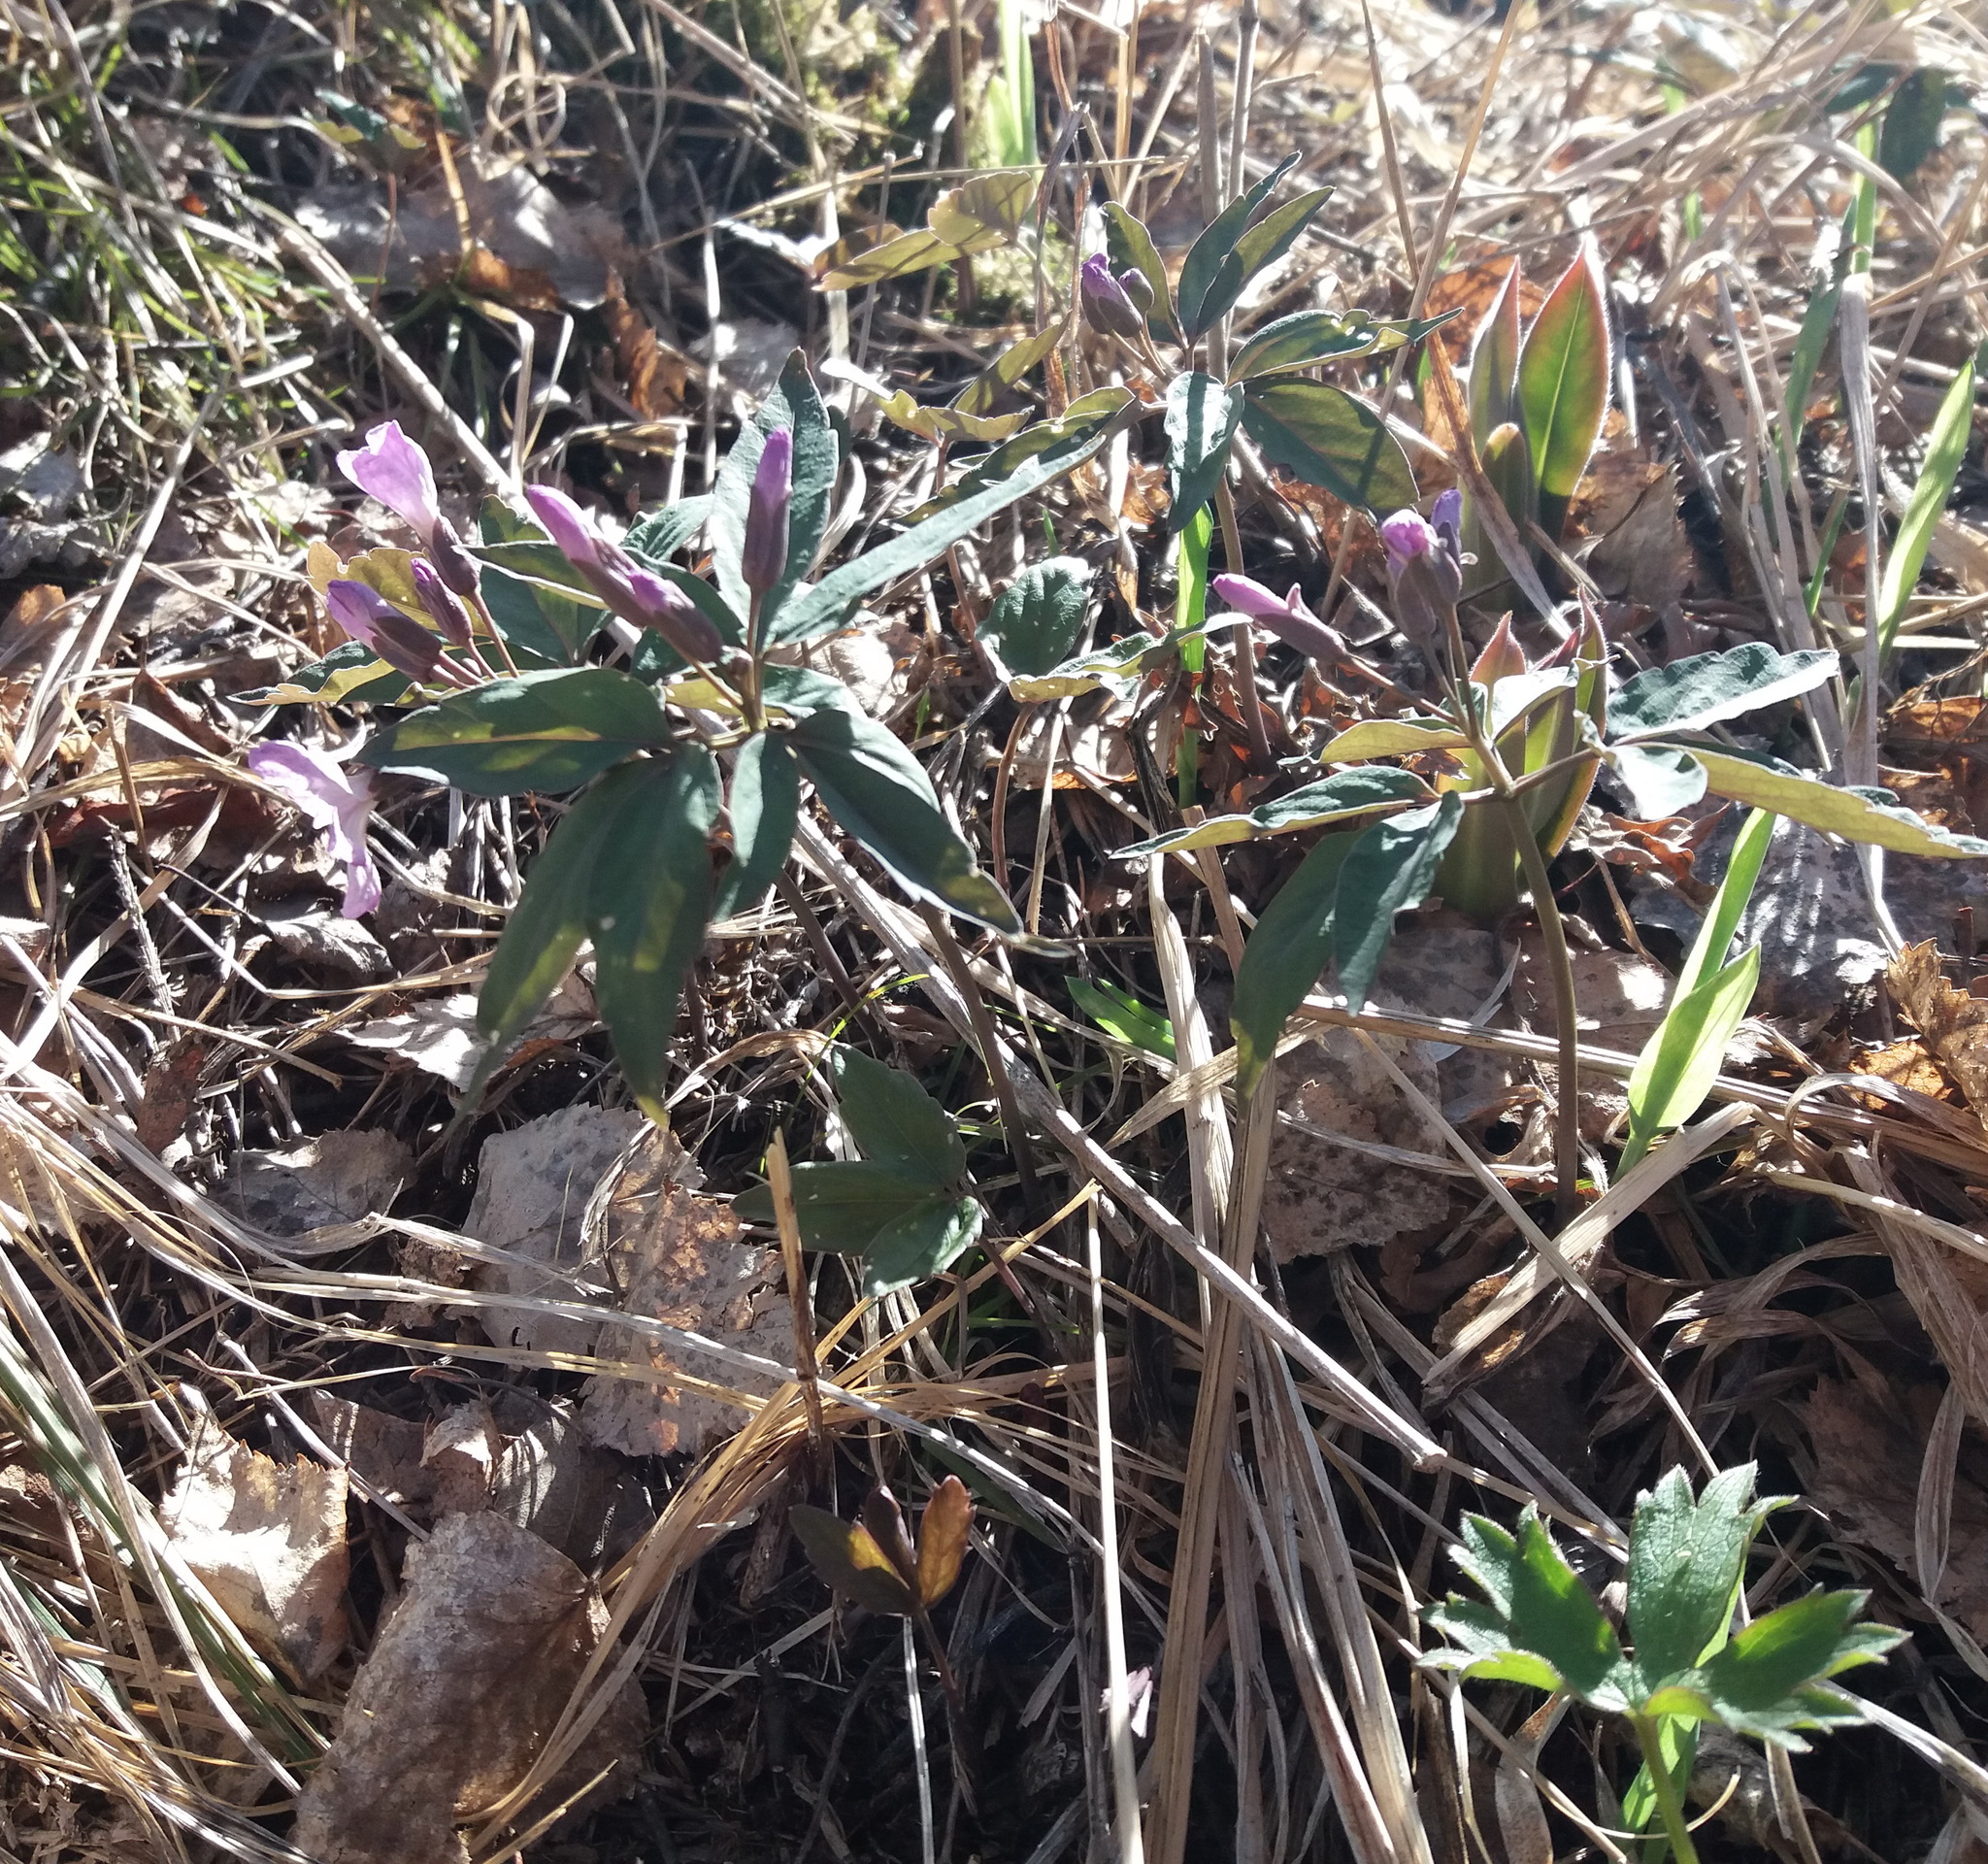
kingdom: Plantae
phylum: Tracheophyta
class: Magnoliopsida
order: Brassicales
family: Brassicaceae
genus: Cardamine
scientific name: Cardamine altaica
